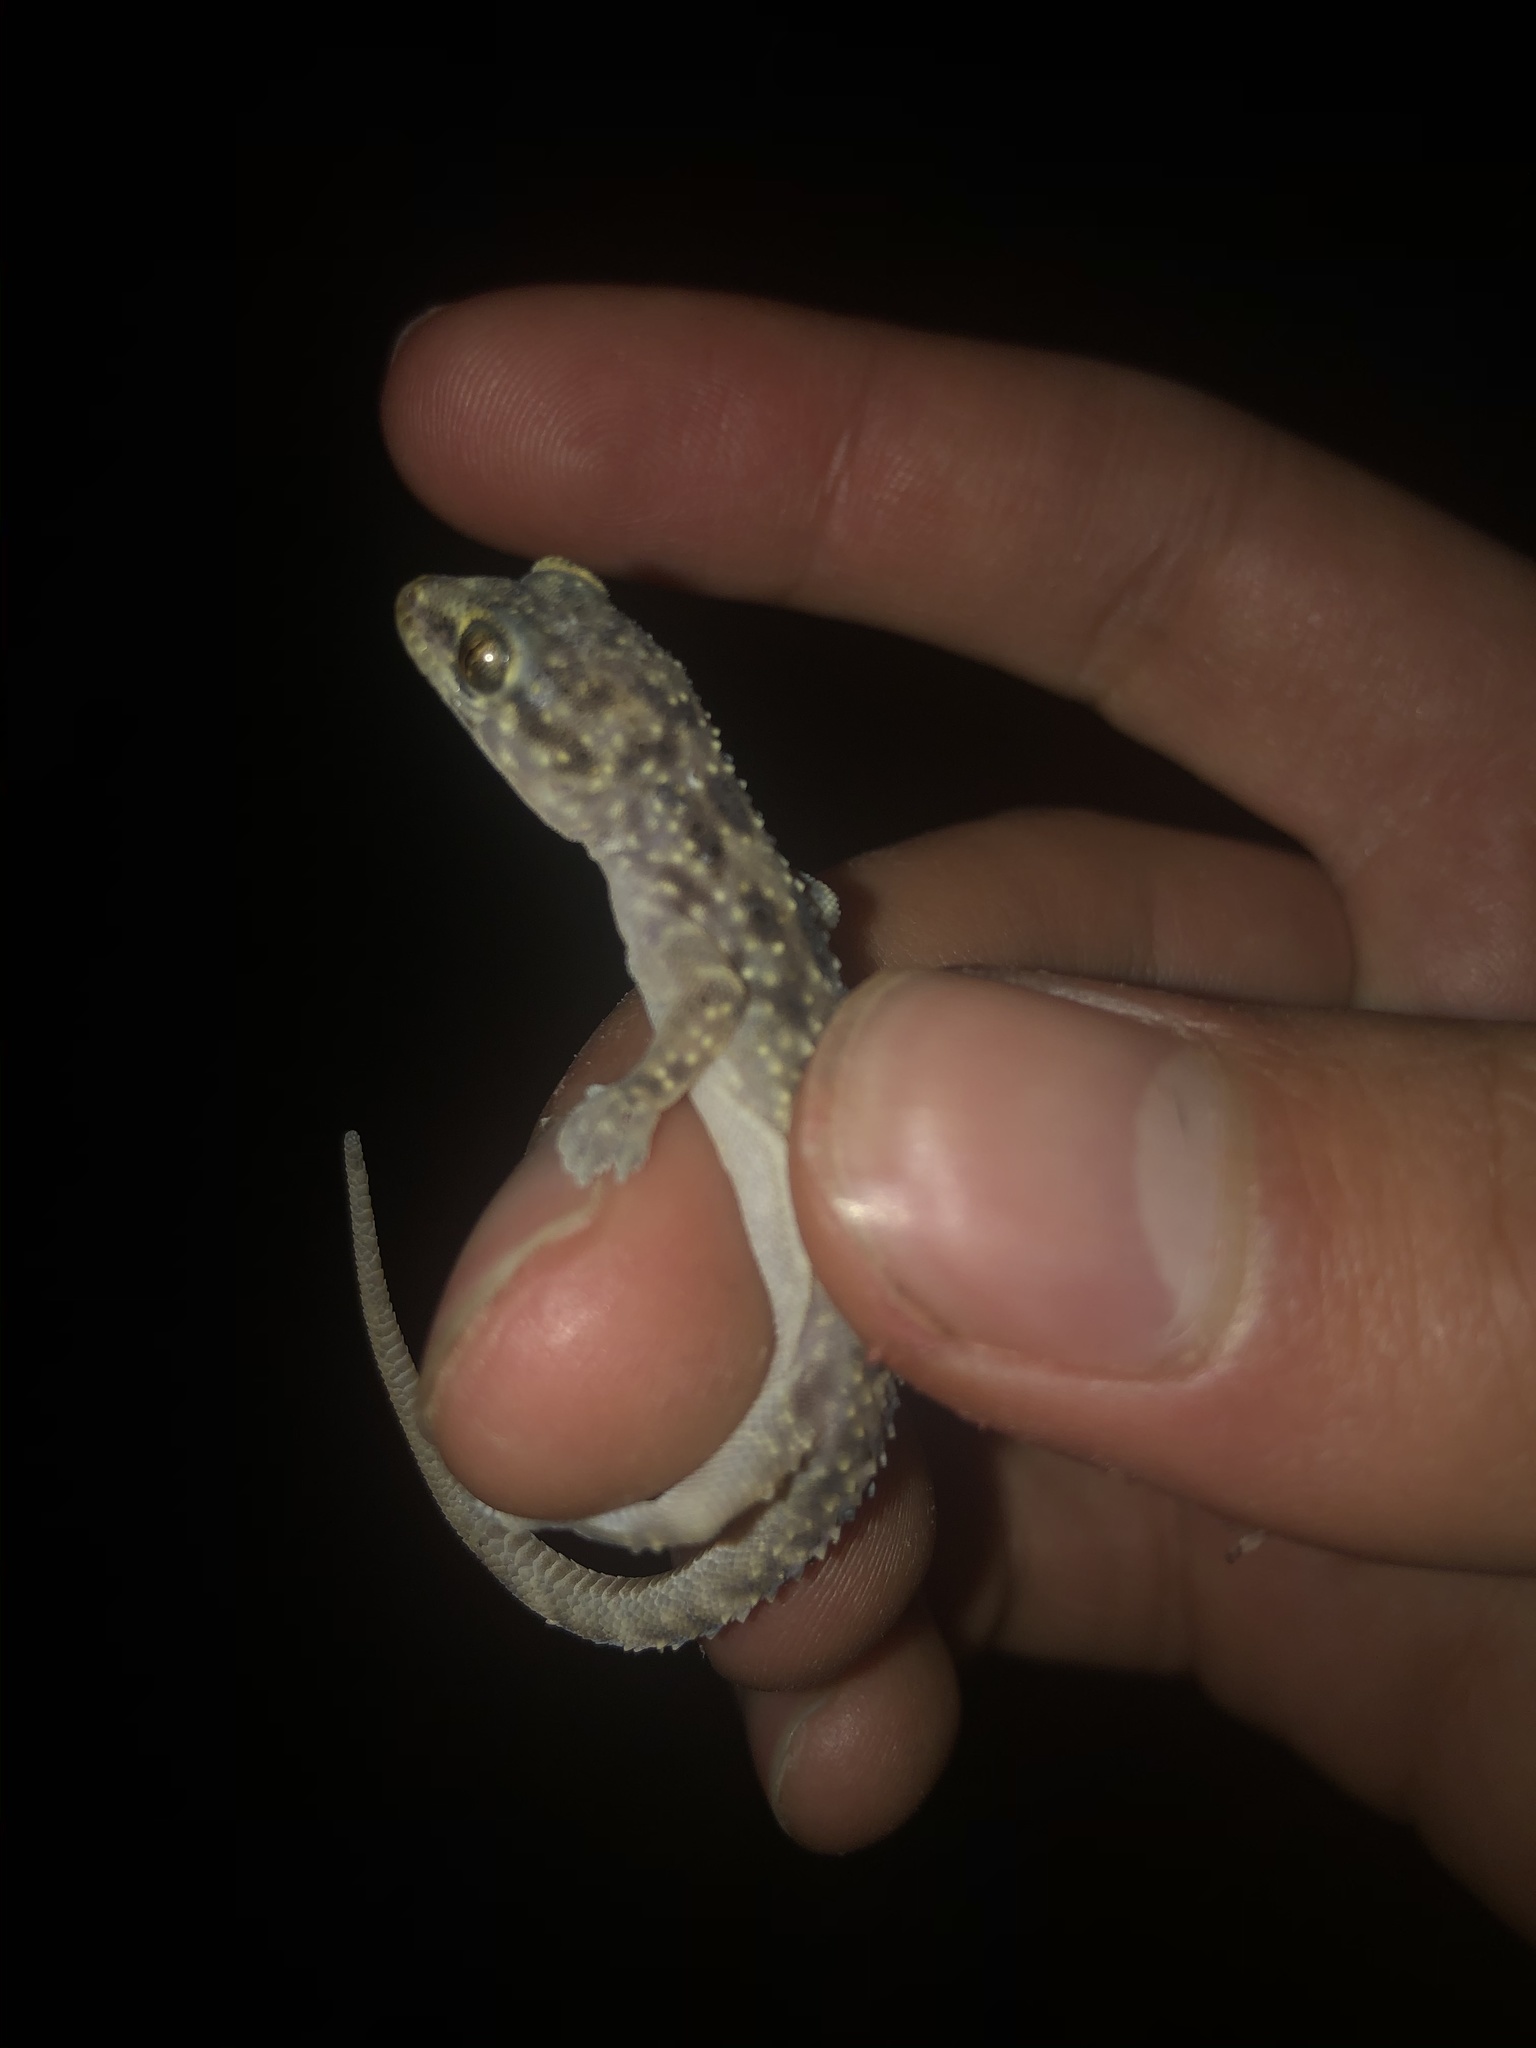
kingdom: Animalia
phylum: Chordata
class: Squamata
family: Gekkonidae
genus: Hemidactylus
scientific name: Hemidactylus turcicus
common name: Turkish gecko
